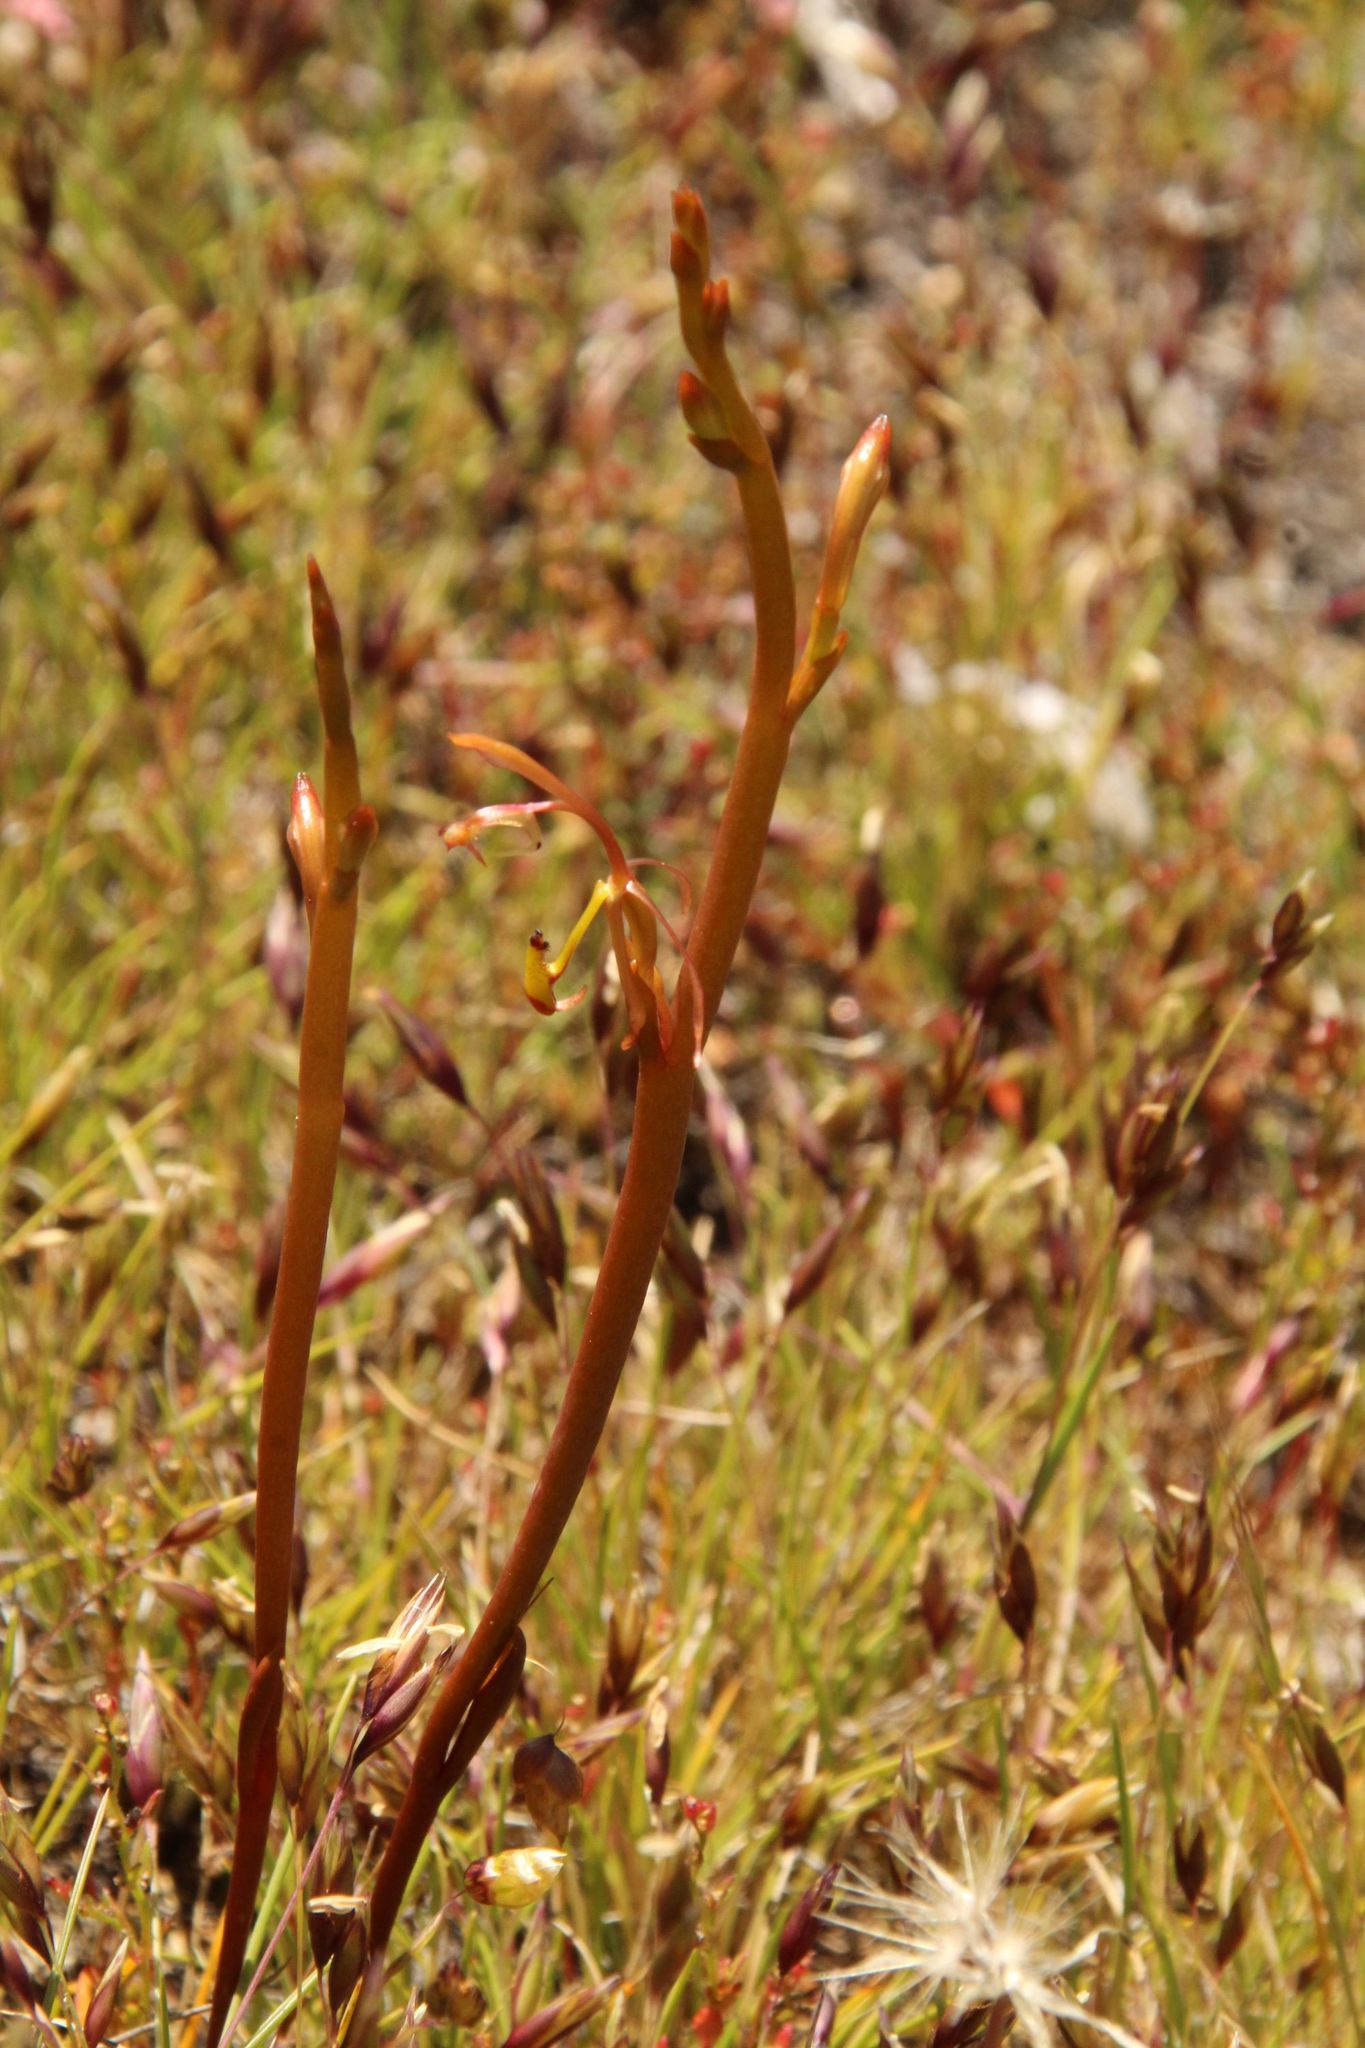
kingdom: Plantae
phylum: Tracheophyta
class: Liliopsida
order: Asparagales
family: Orchidaceae
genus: Spiculaea
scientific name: Spiculaea ciliata
